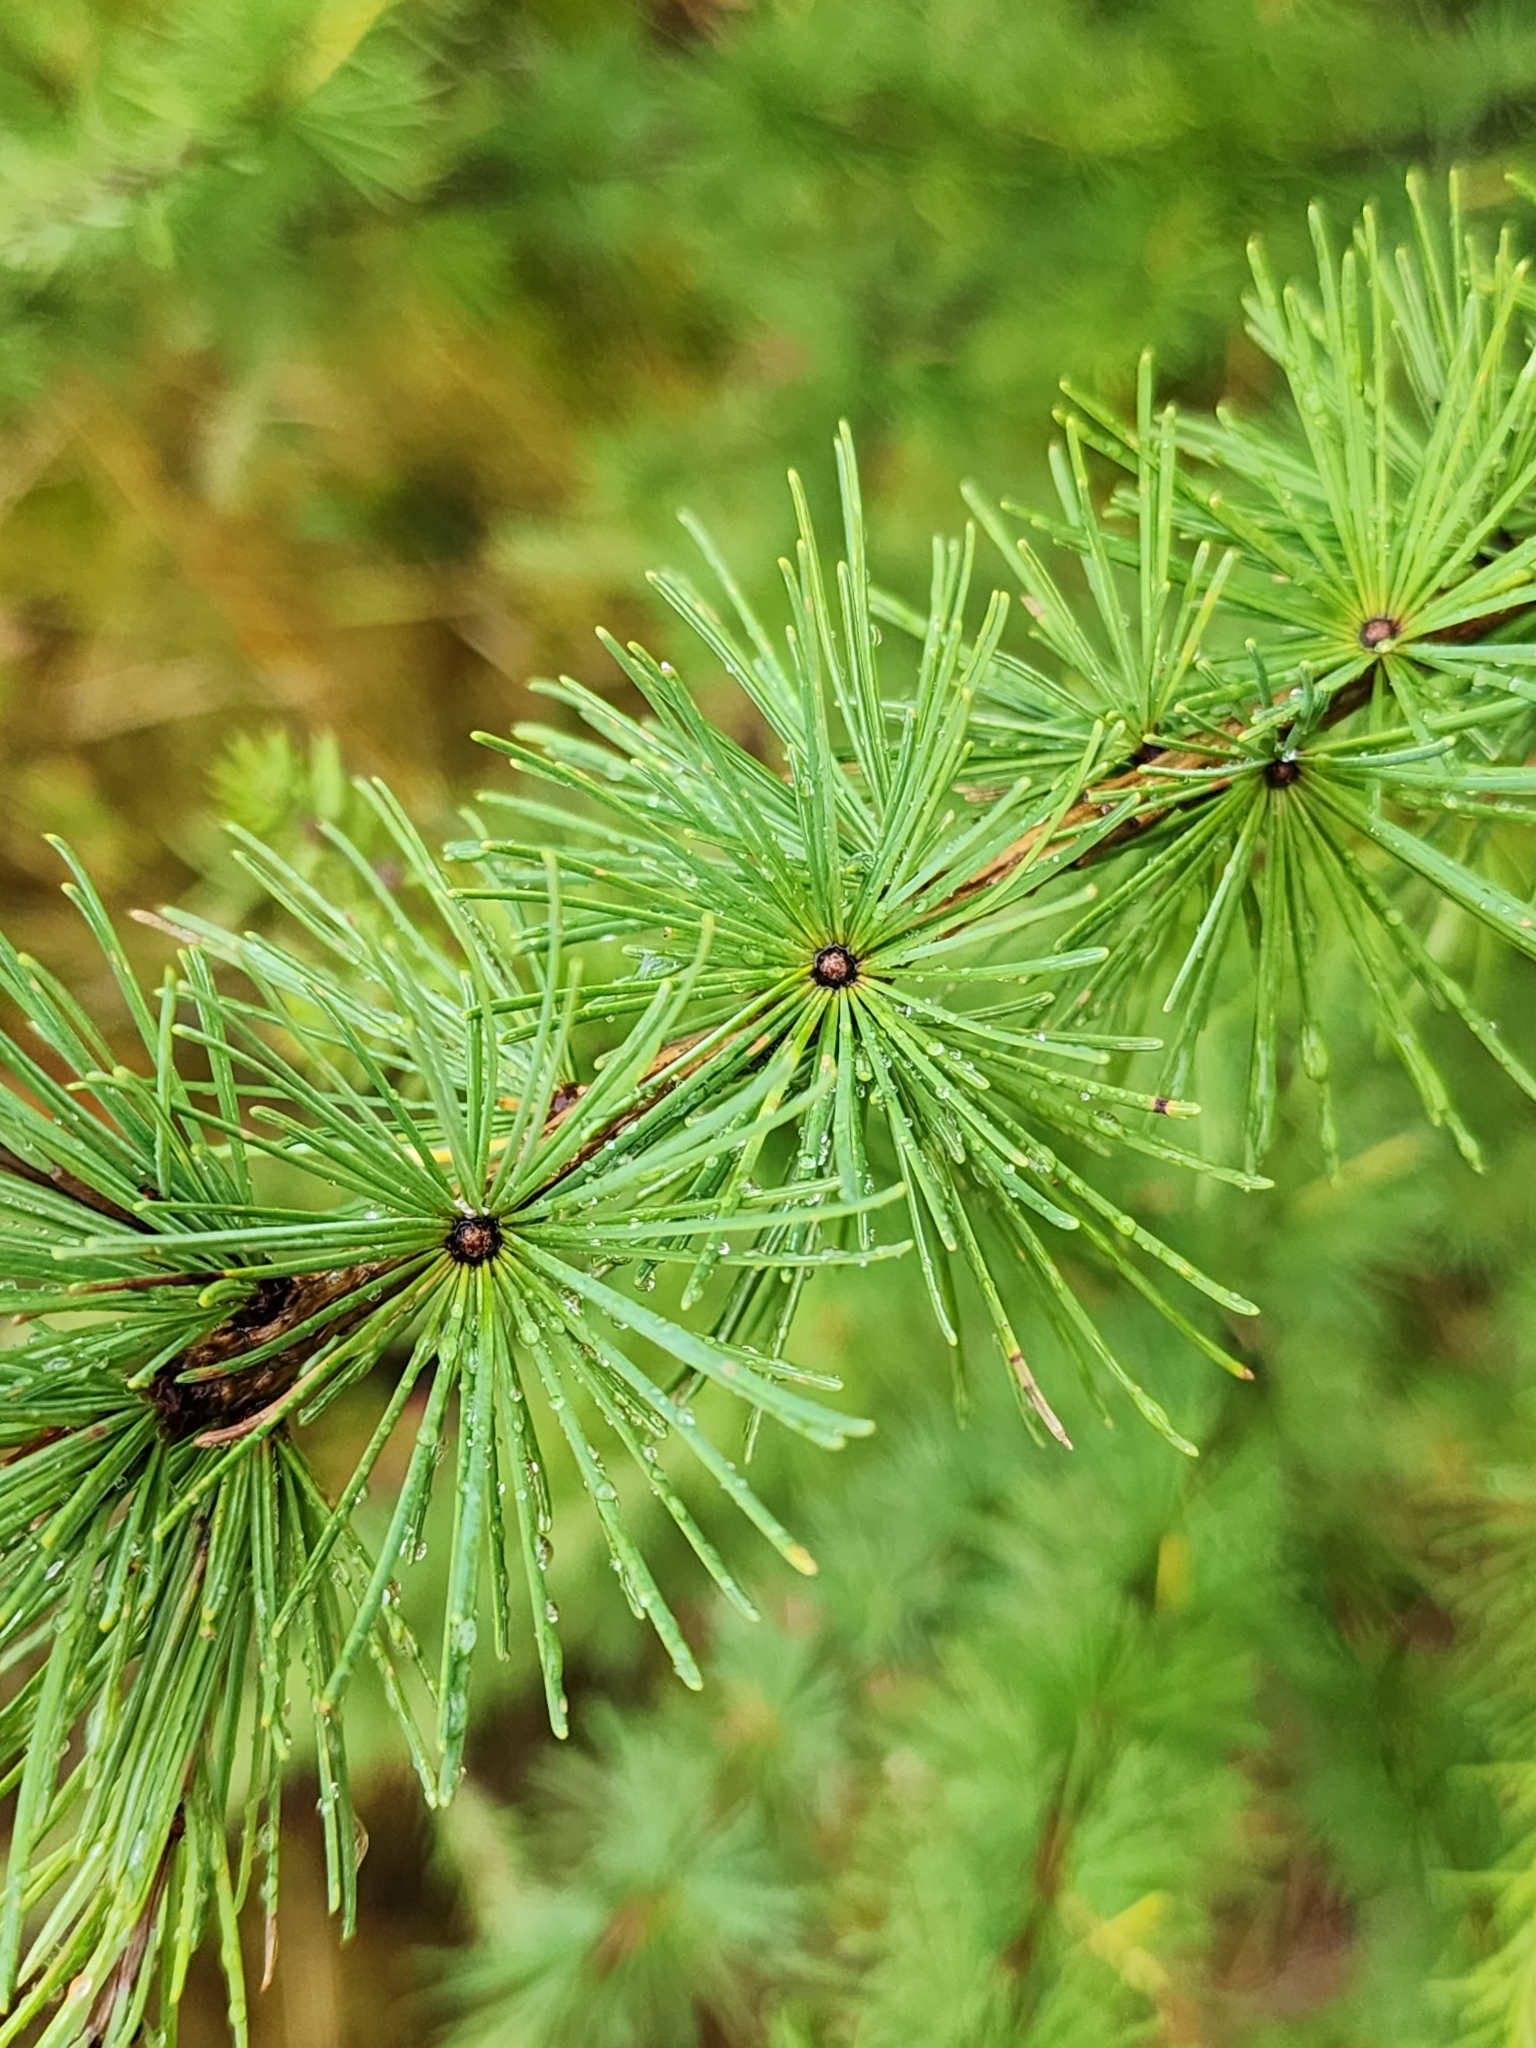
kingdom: Plantae
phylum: Tracheophyta
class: Pinopsida
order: Pinales
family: Pinaceae
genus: Larix
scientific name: Larix laricina
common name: American larch
